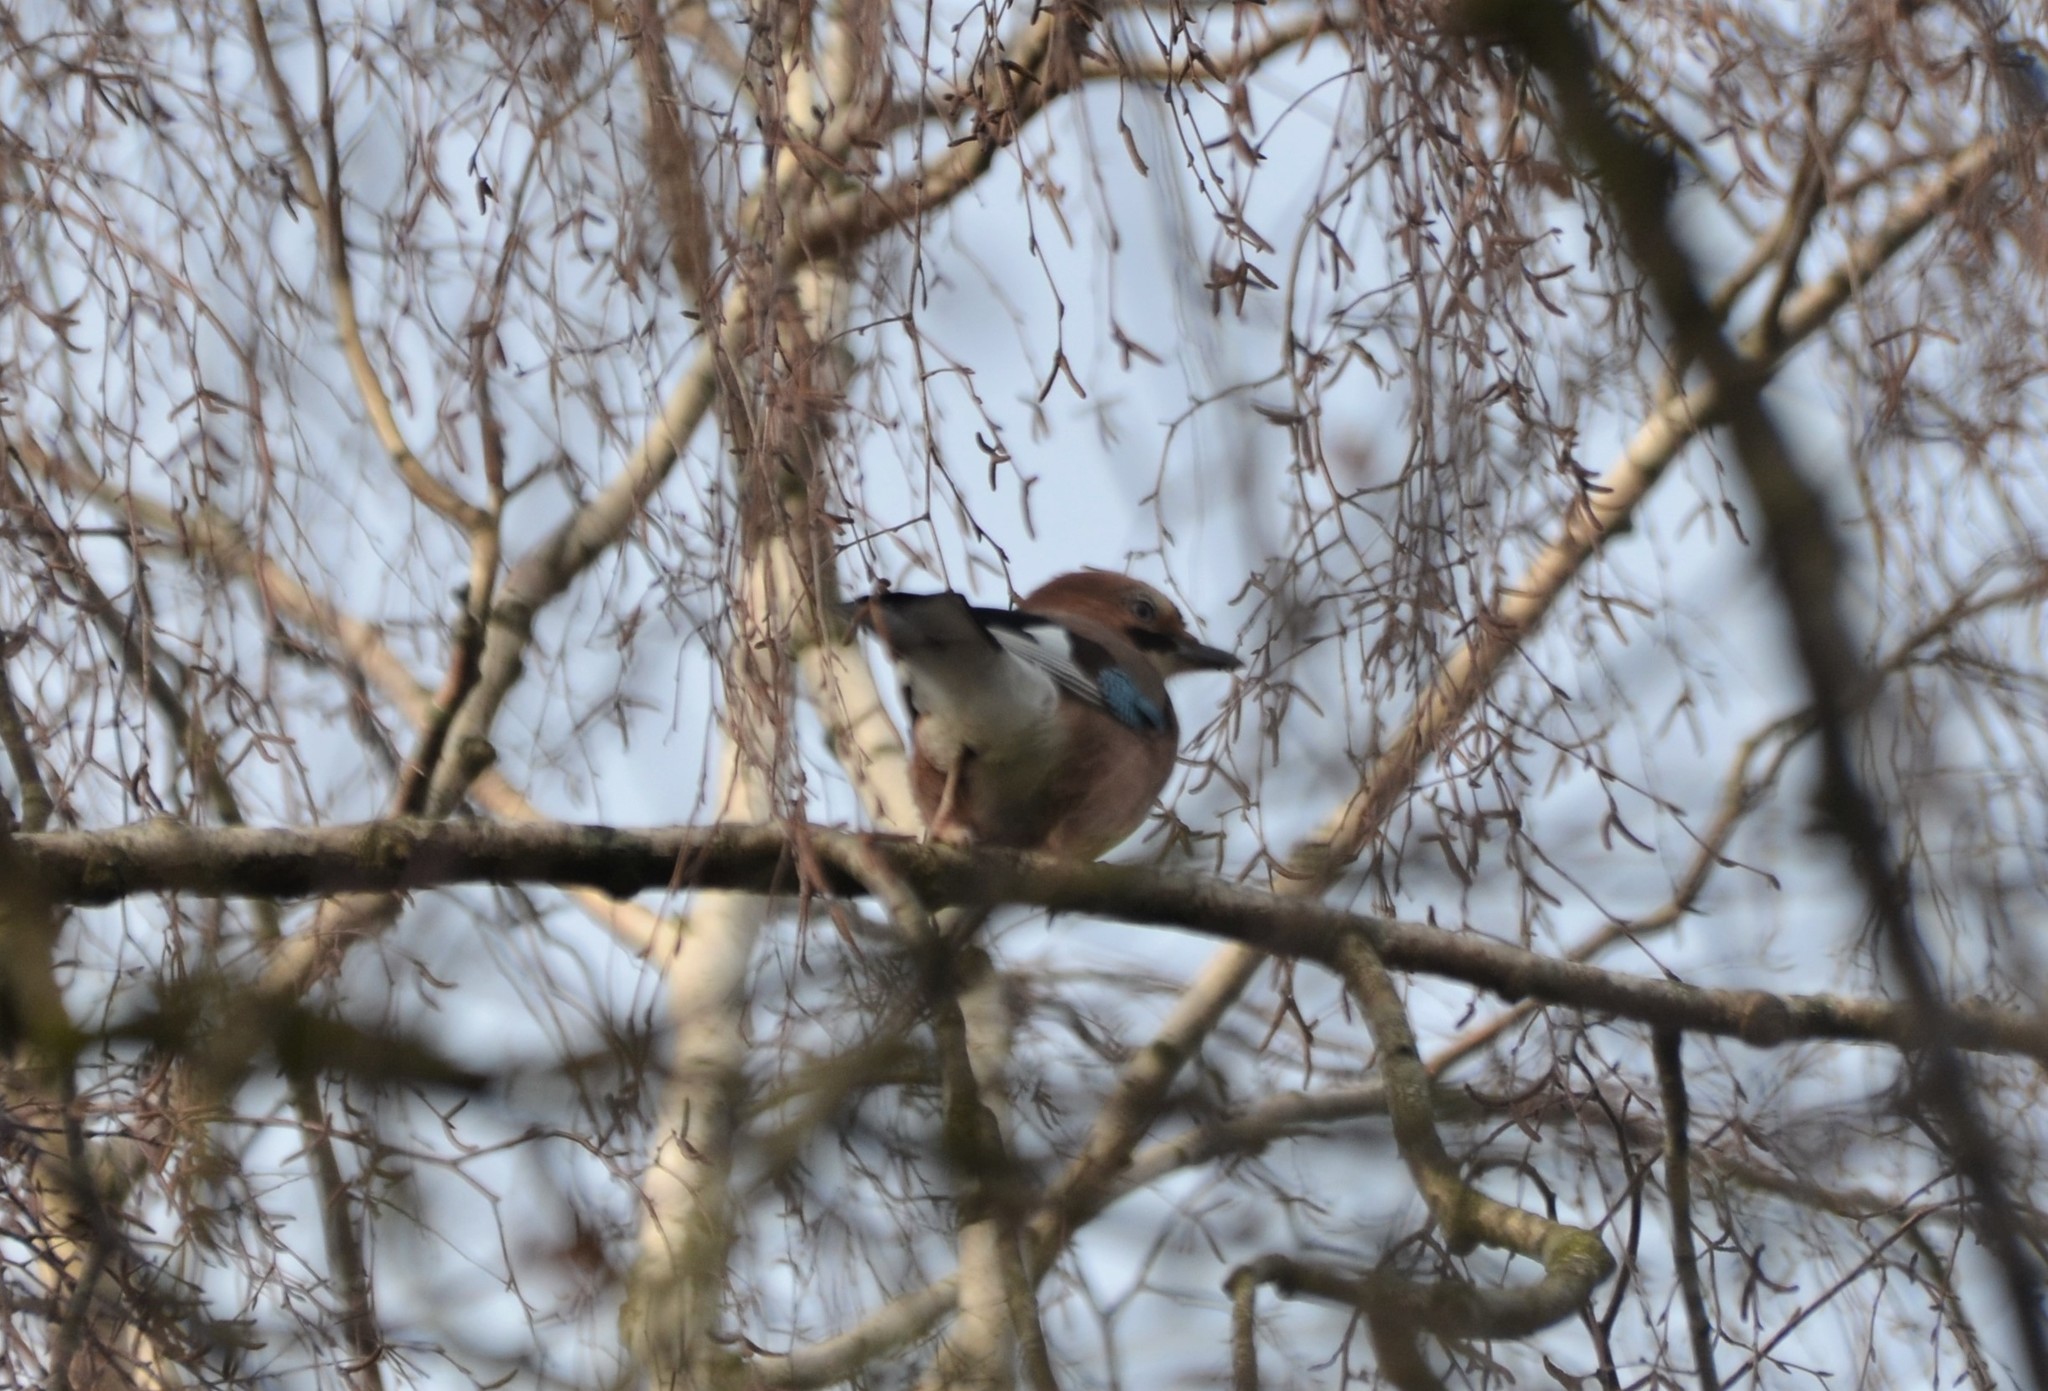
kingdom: Animalia
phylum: Chordata
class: Aves
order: Passeriformes
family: Corvidae
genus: Garrulus
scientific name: Garrulus glandarius
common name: Eurasian jay
